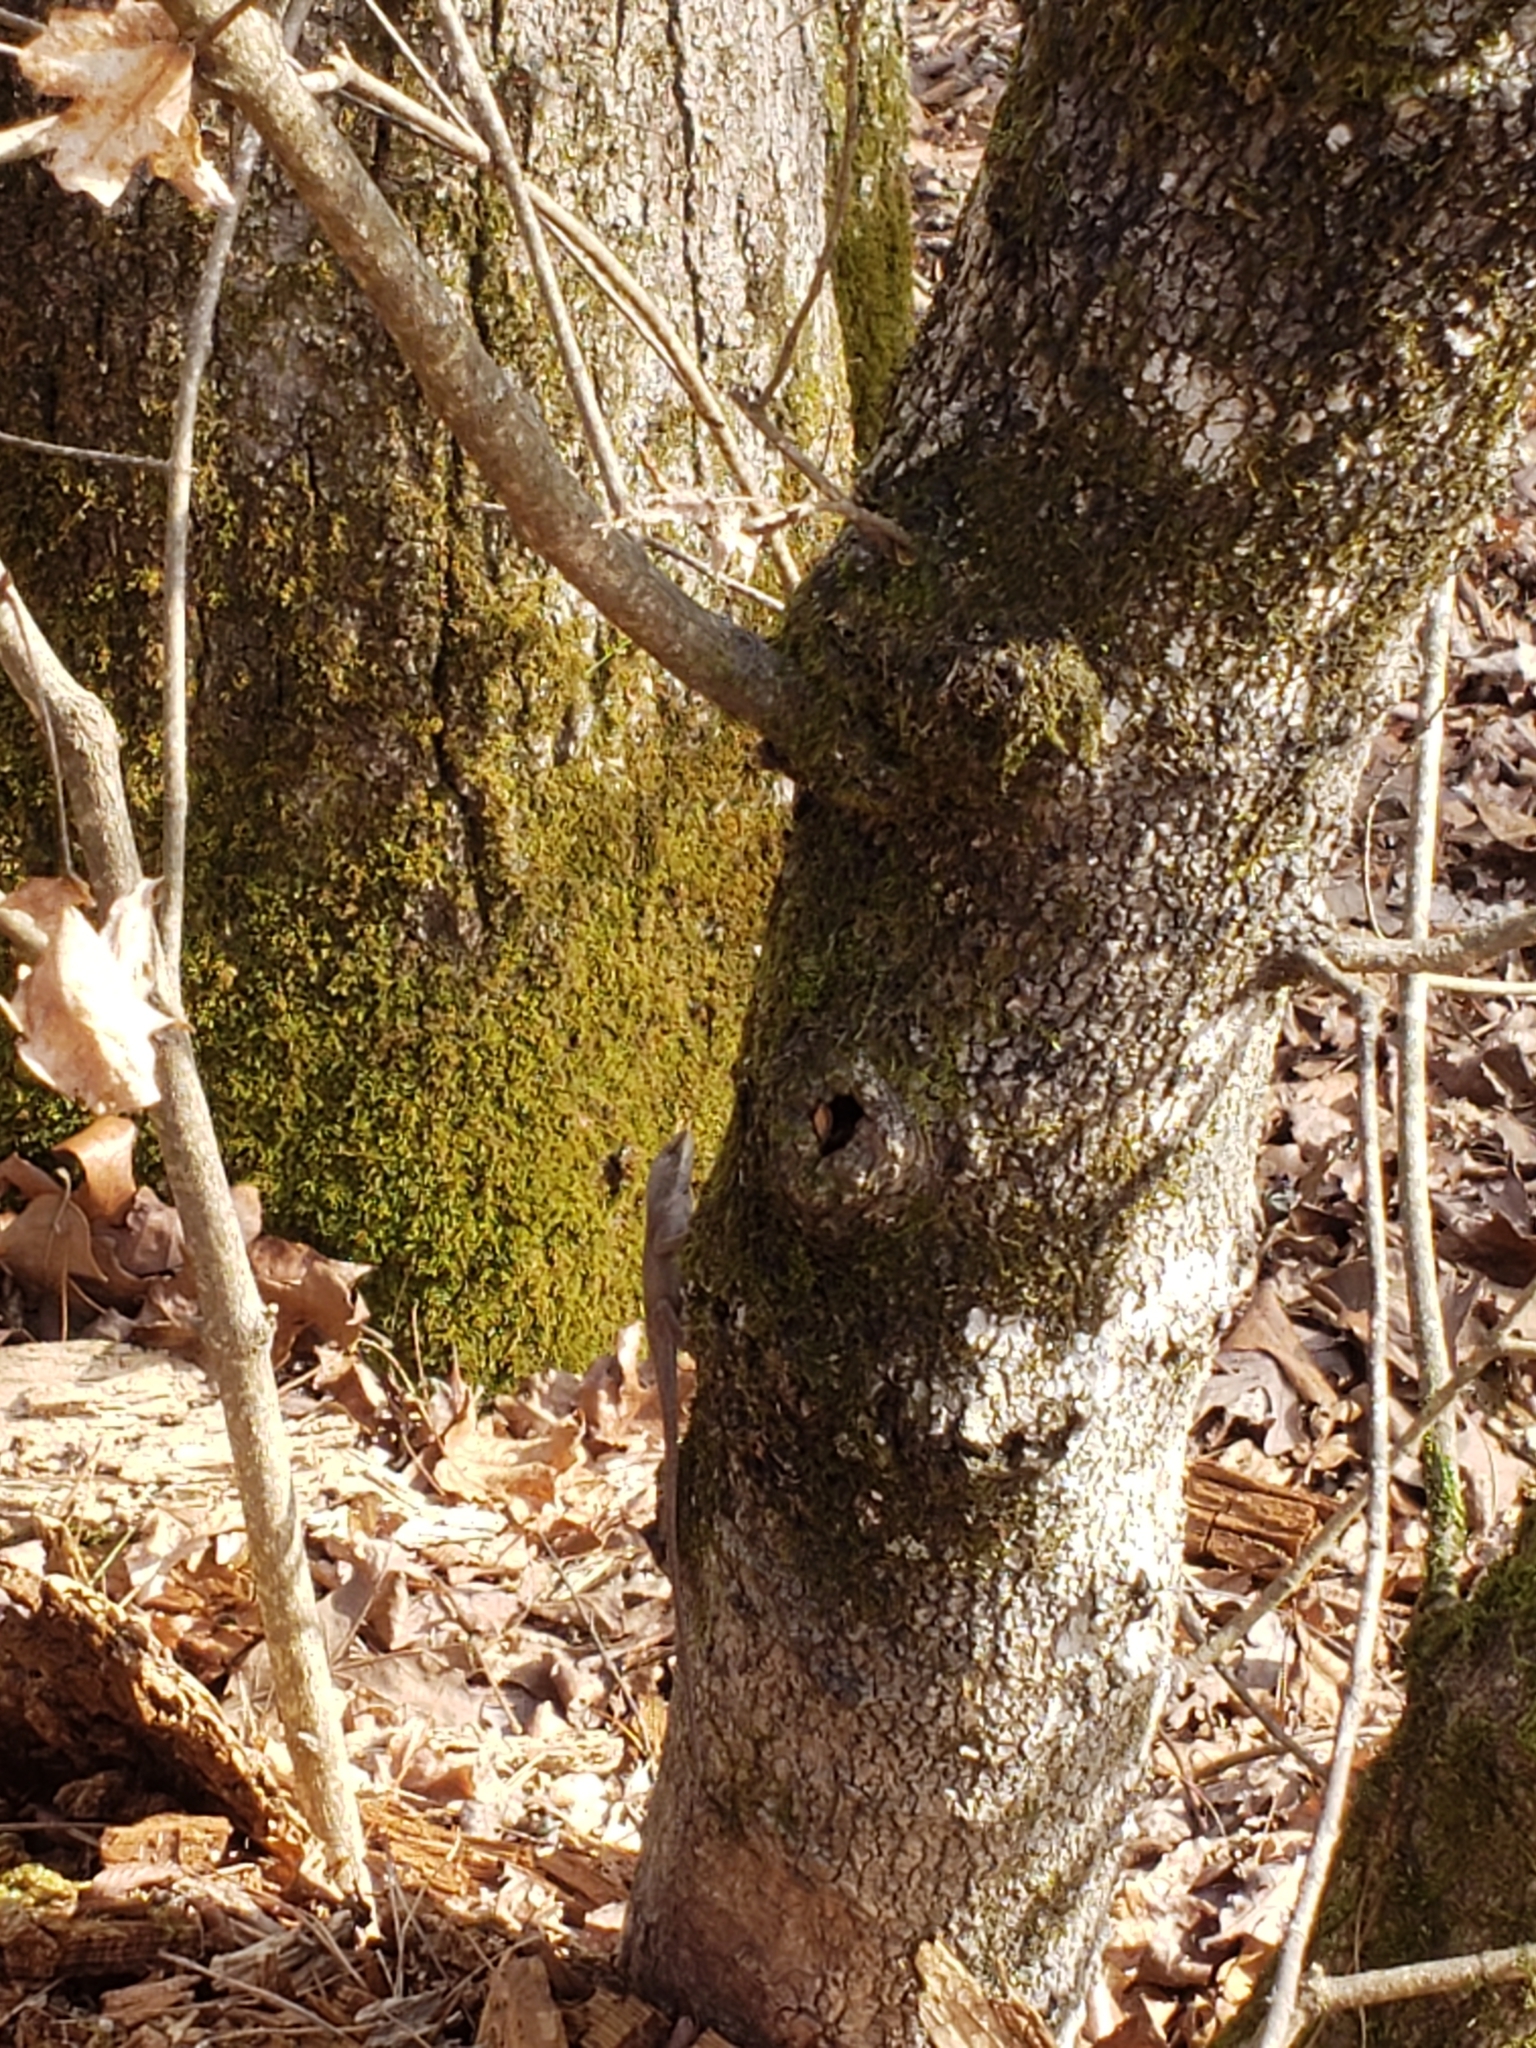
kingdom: Animalia
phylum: Chordata
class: Squamata
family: Dactyloidae
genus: Anolis
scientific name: Anolis carolinensis
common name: Green anole
